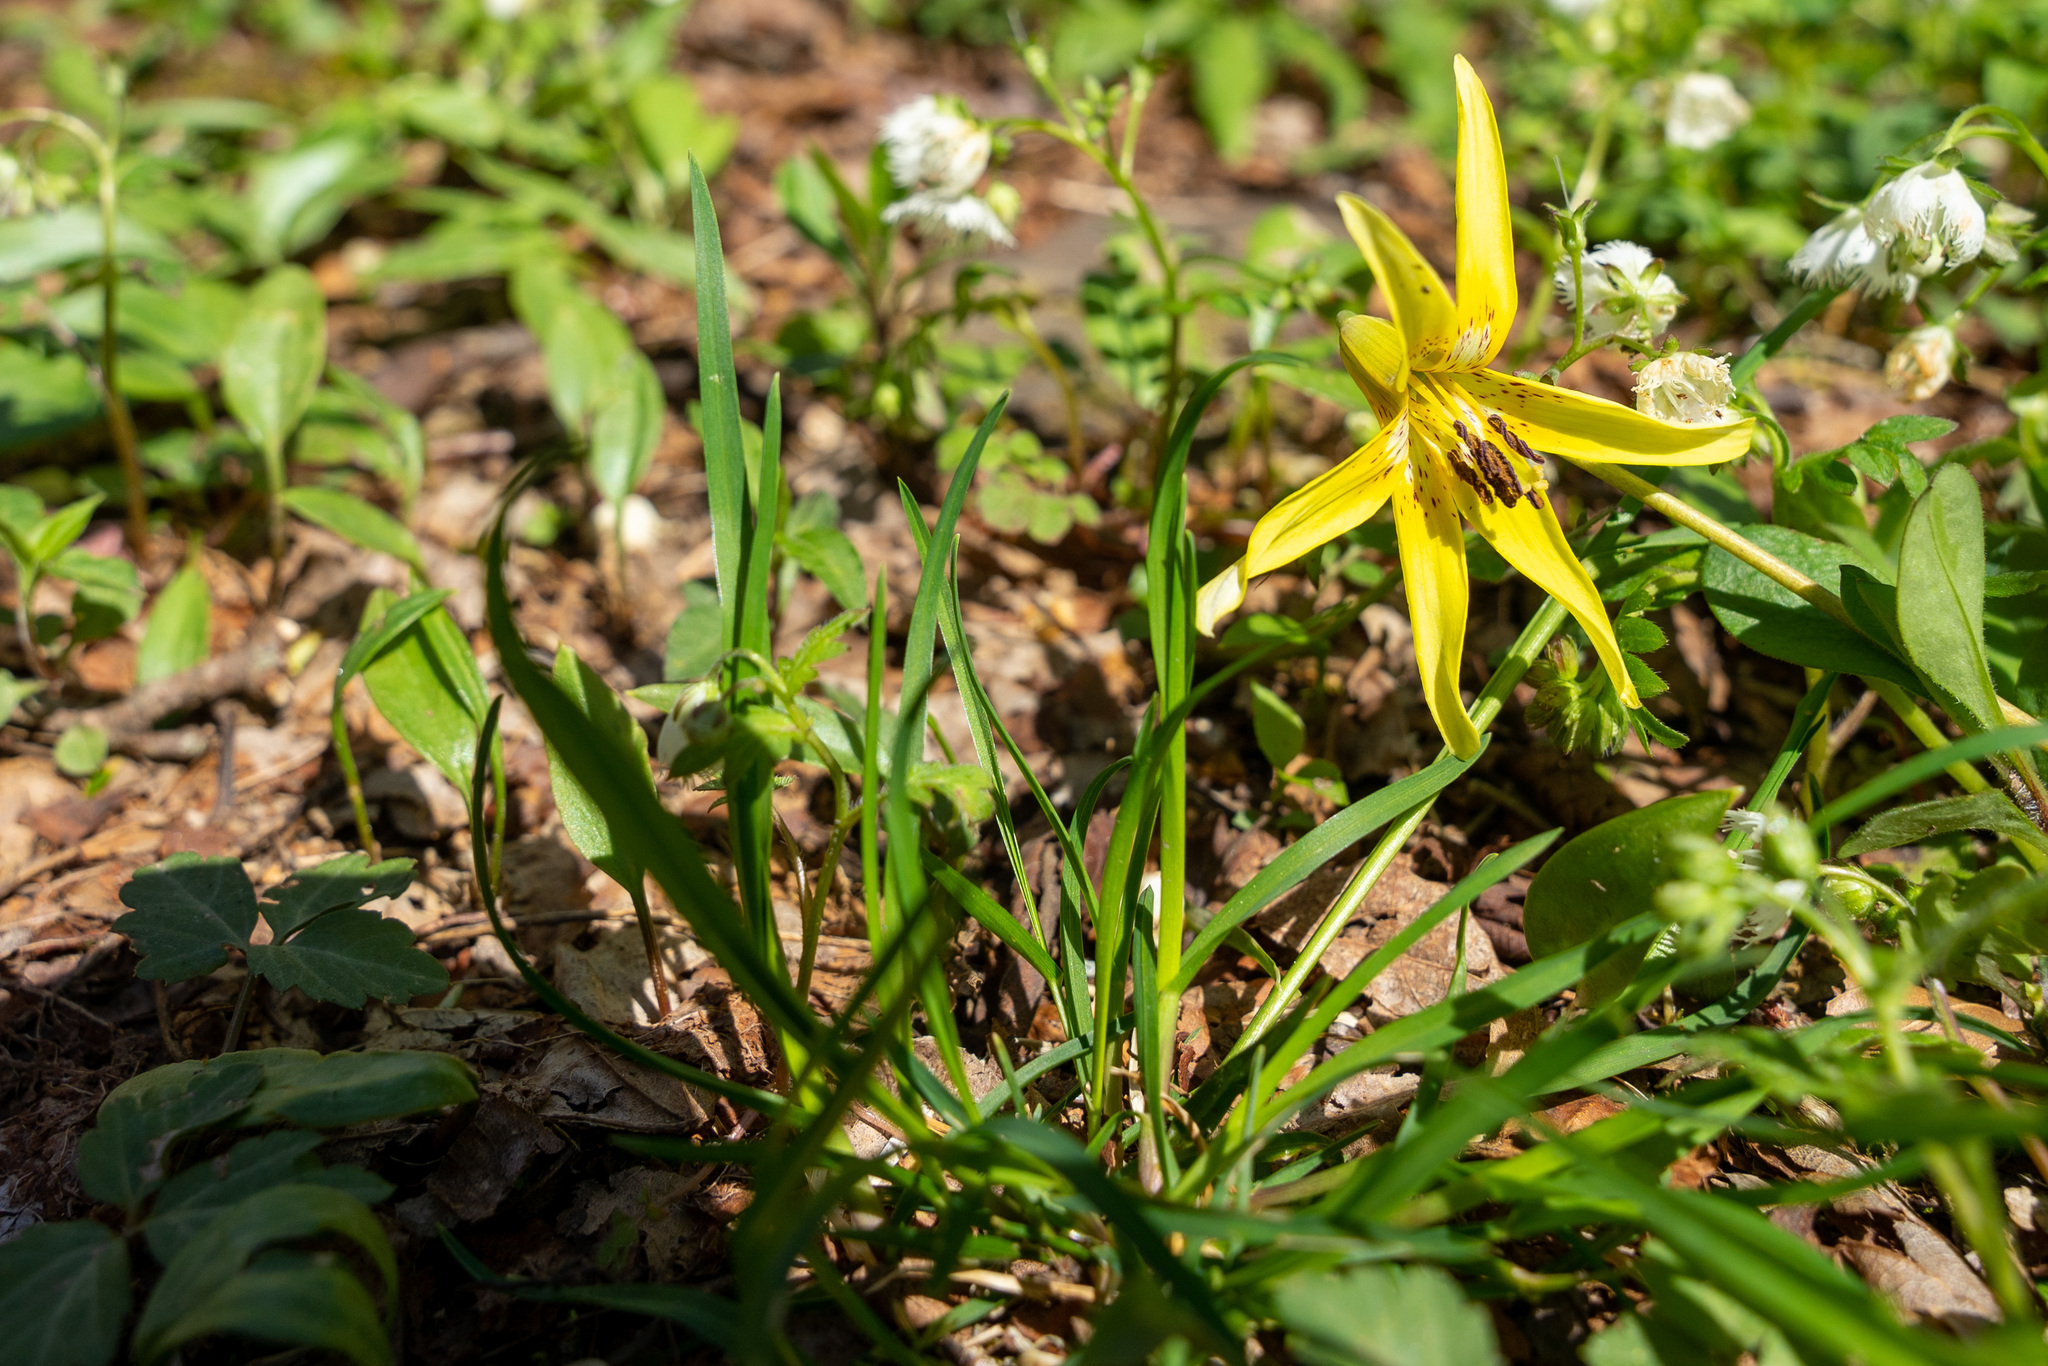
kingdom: Plantae
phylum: Tracheophyta
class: Liliopsida
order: Liliales
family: Liliaceae
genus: Erythronium
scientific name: Erythronium americanum
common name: Yellow adder's-tongue
